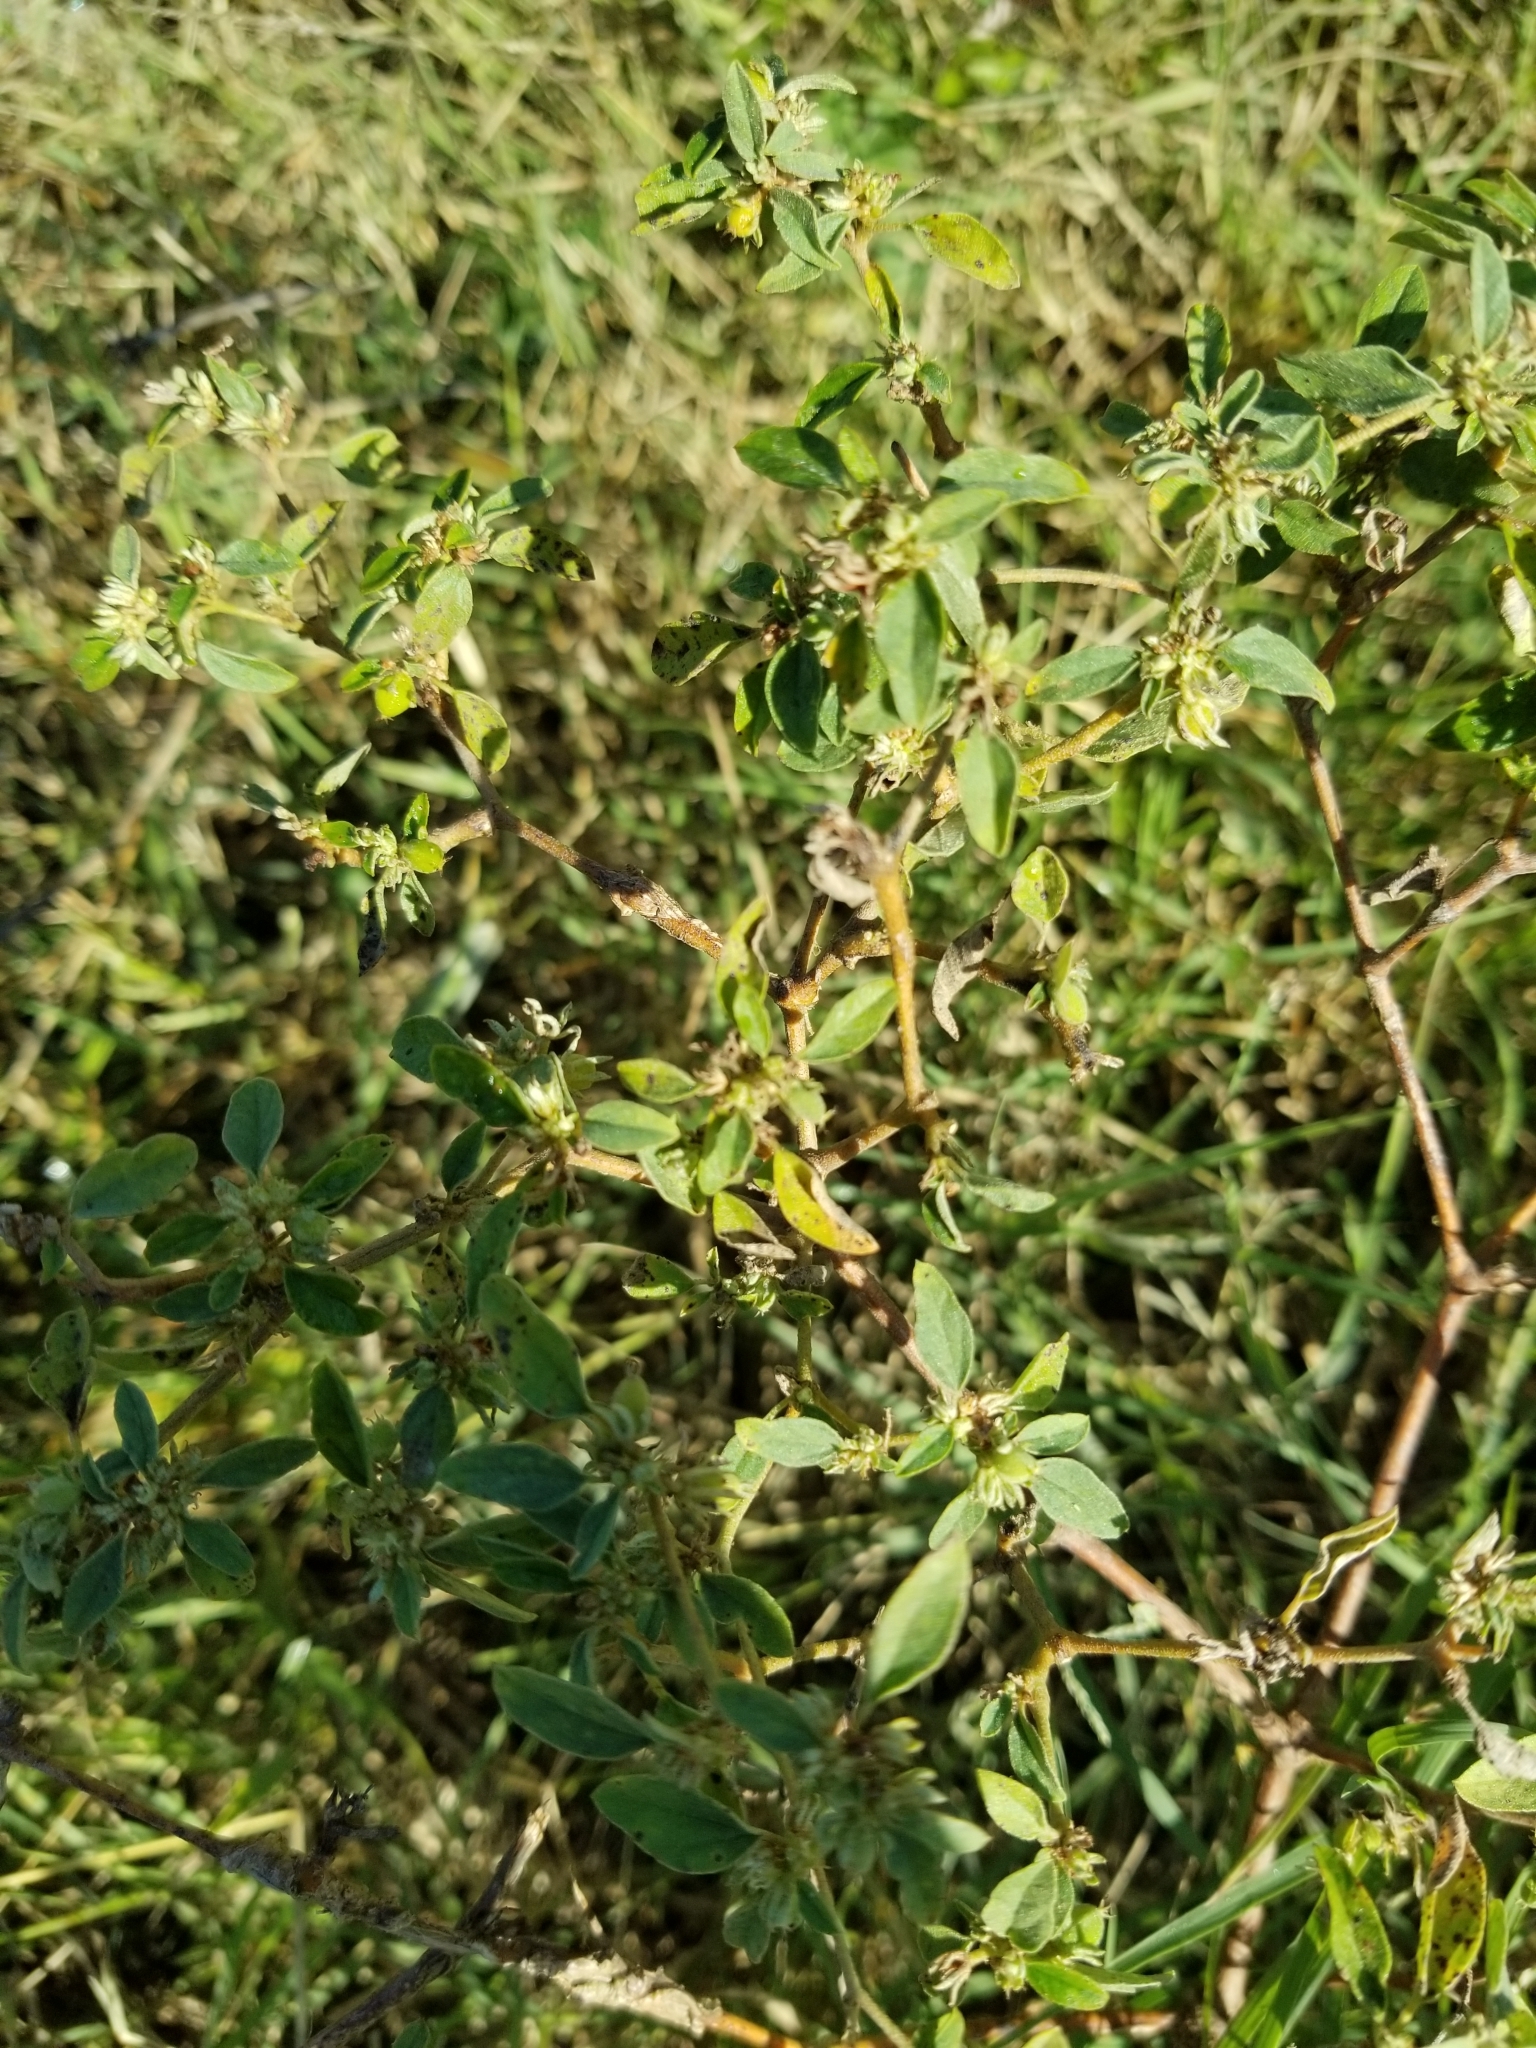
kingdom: Plantae
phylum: Tracheophyta
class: Magnoliopsida
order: Malpighiales
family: Euphorbiaceae
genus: Croton
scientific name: Croton monanthogynus
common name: One-seed croton
